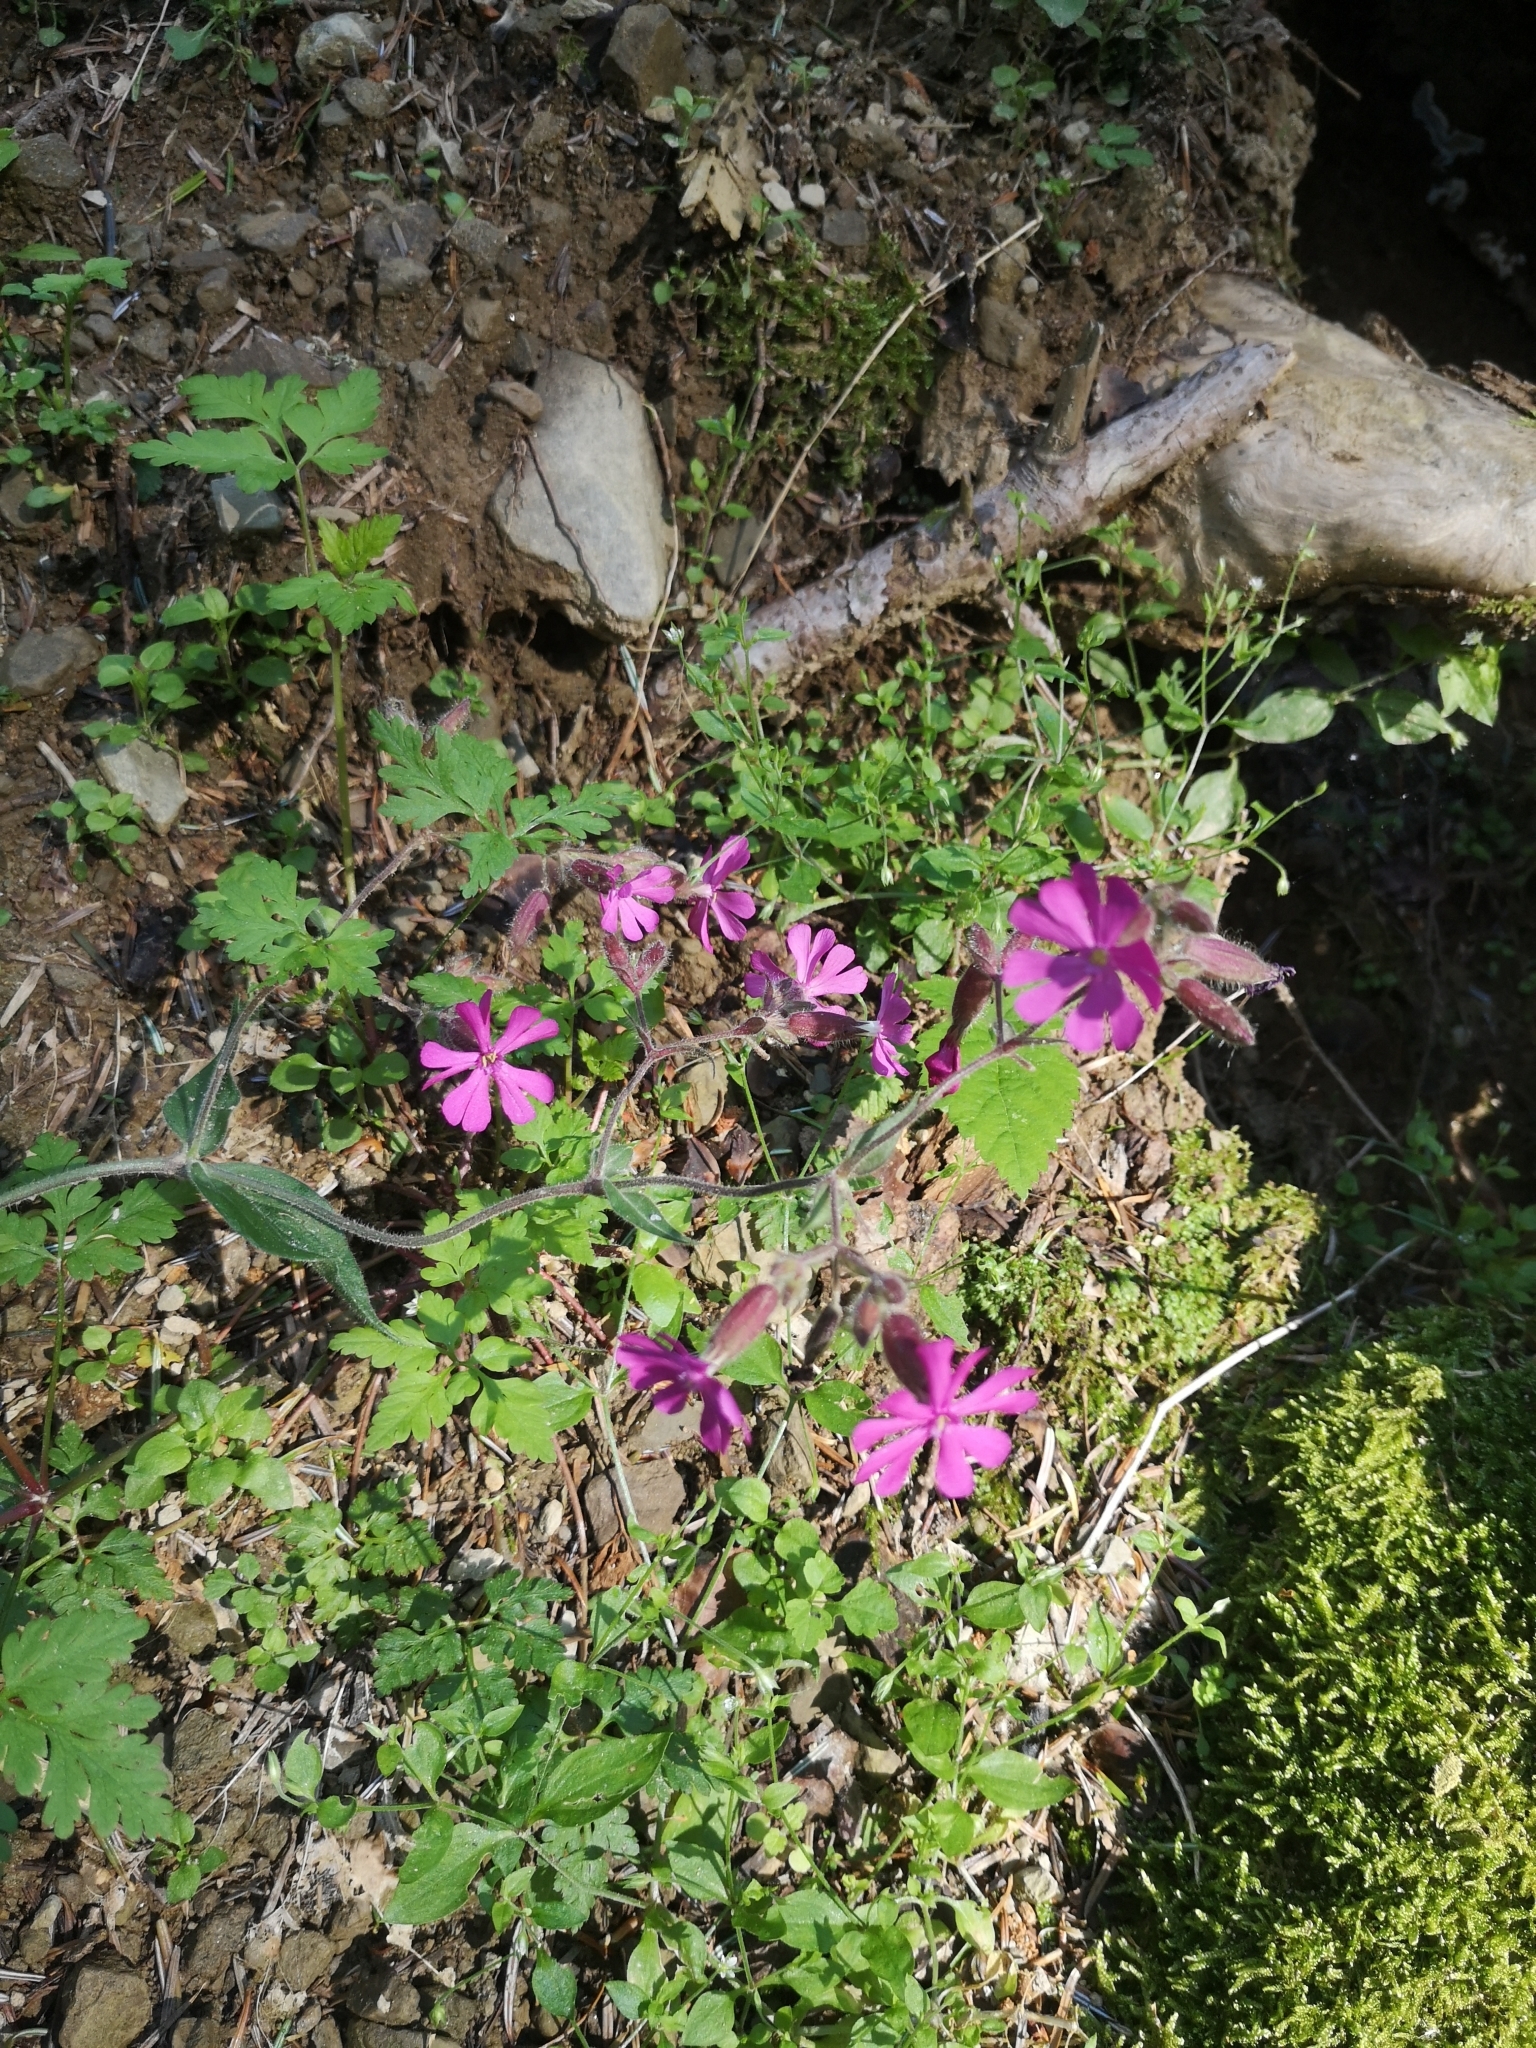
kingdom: Plantae
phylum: Tracheophyta
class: Magnoliopsida
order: Caryophyllales
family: Caryophyllaceae
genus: Silene
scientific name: Silene dioica
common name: Red campion
